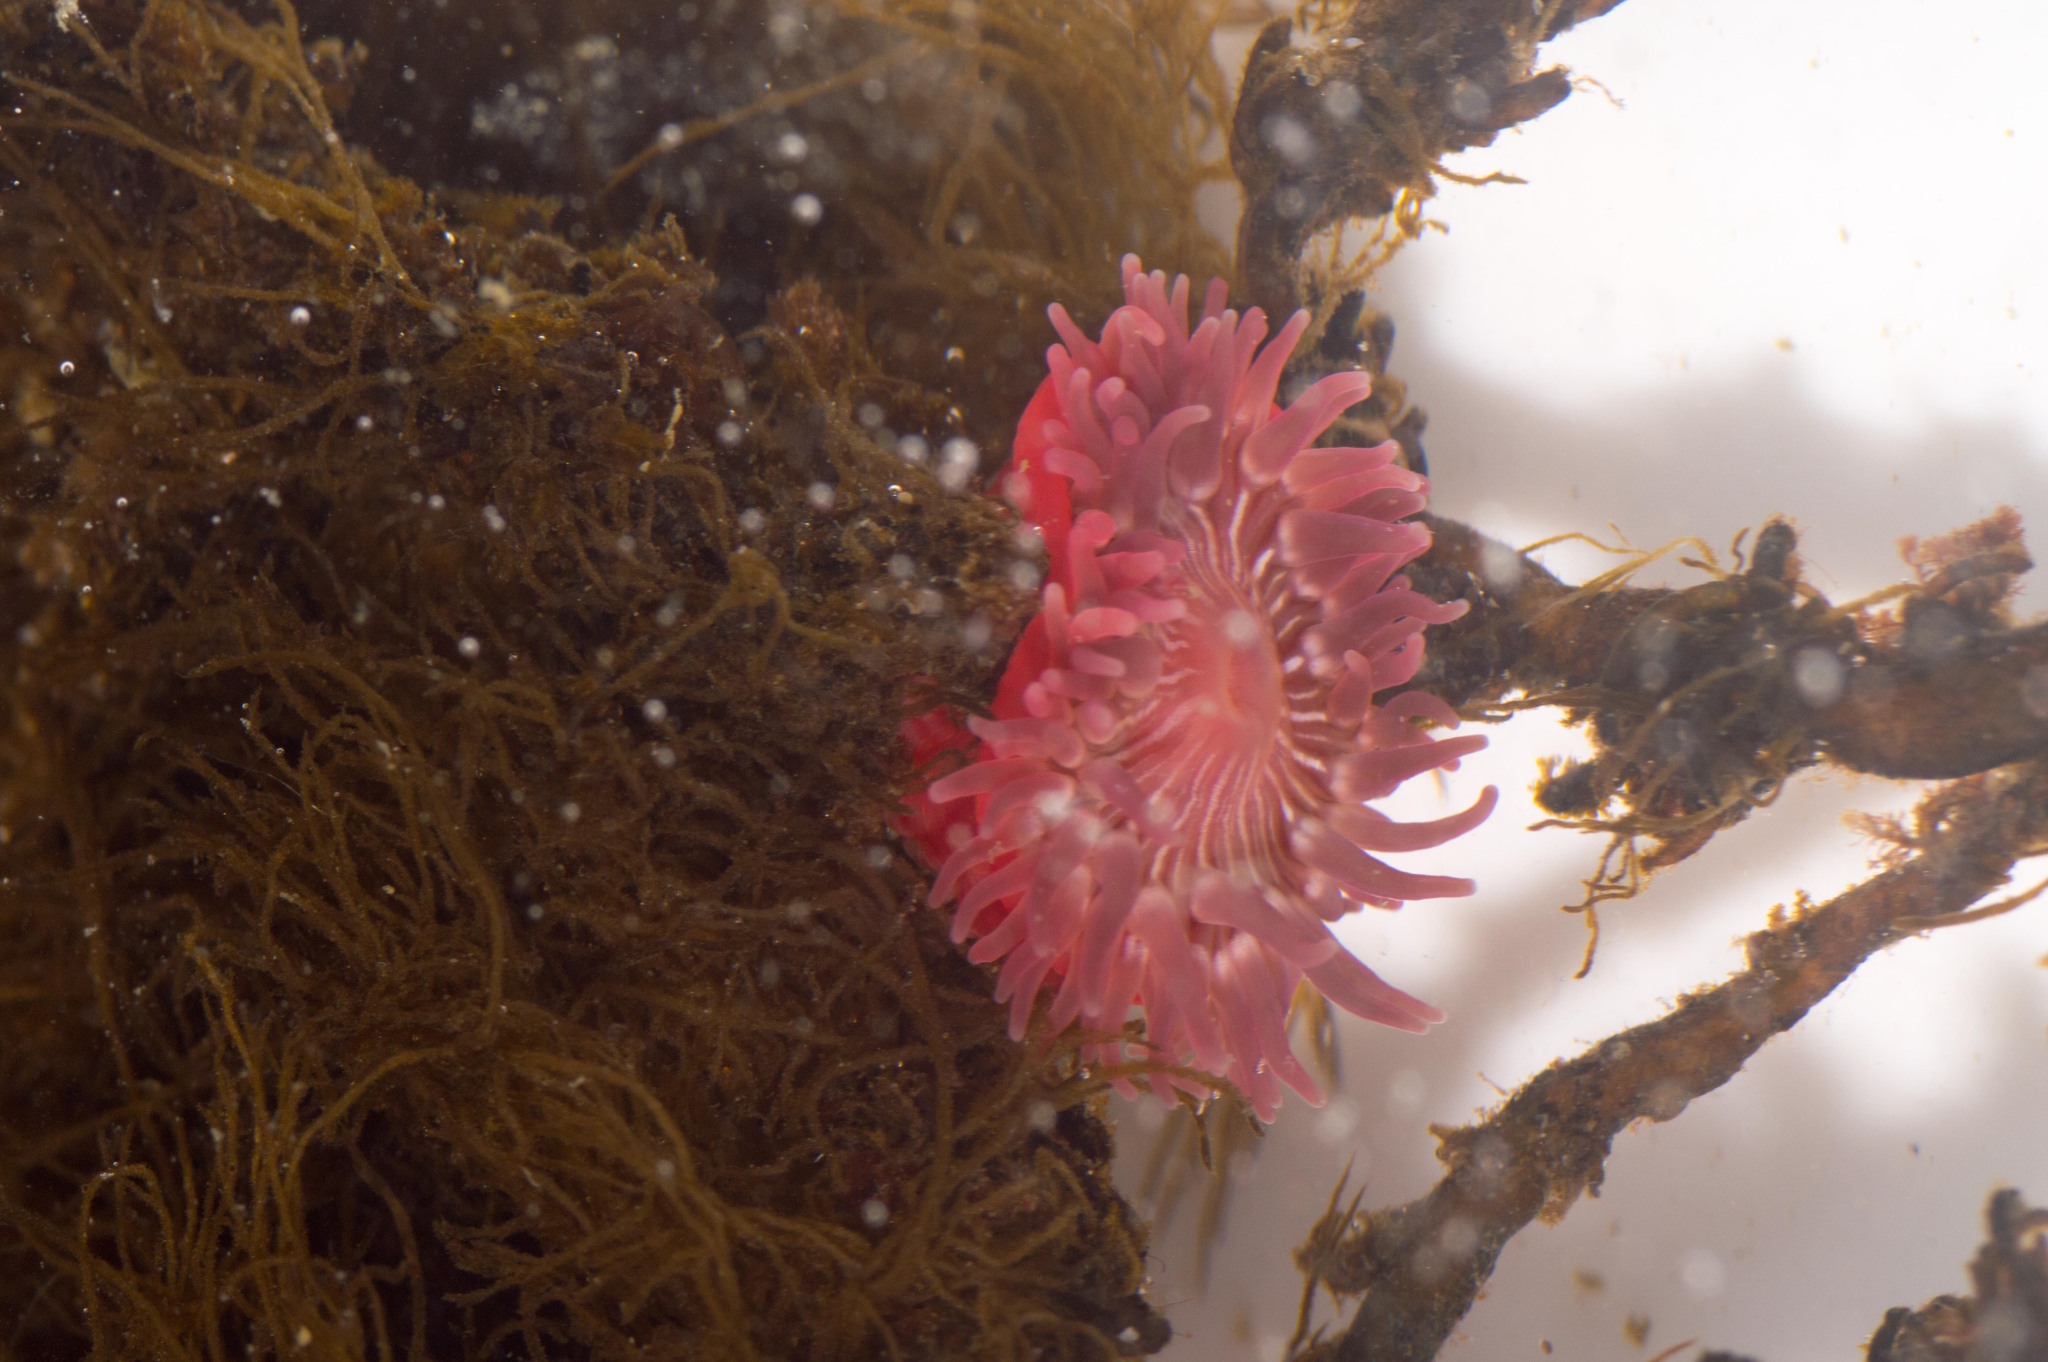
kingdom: Animalia
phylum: Cnidaria
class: Anthozoa
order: Actiniaria
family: Actiniidae
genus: Epiactis
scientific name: Epiactis prolifera
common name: Brooding anemone
